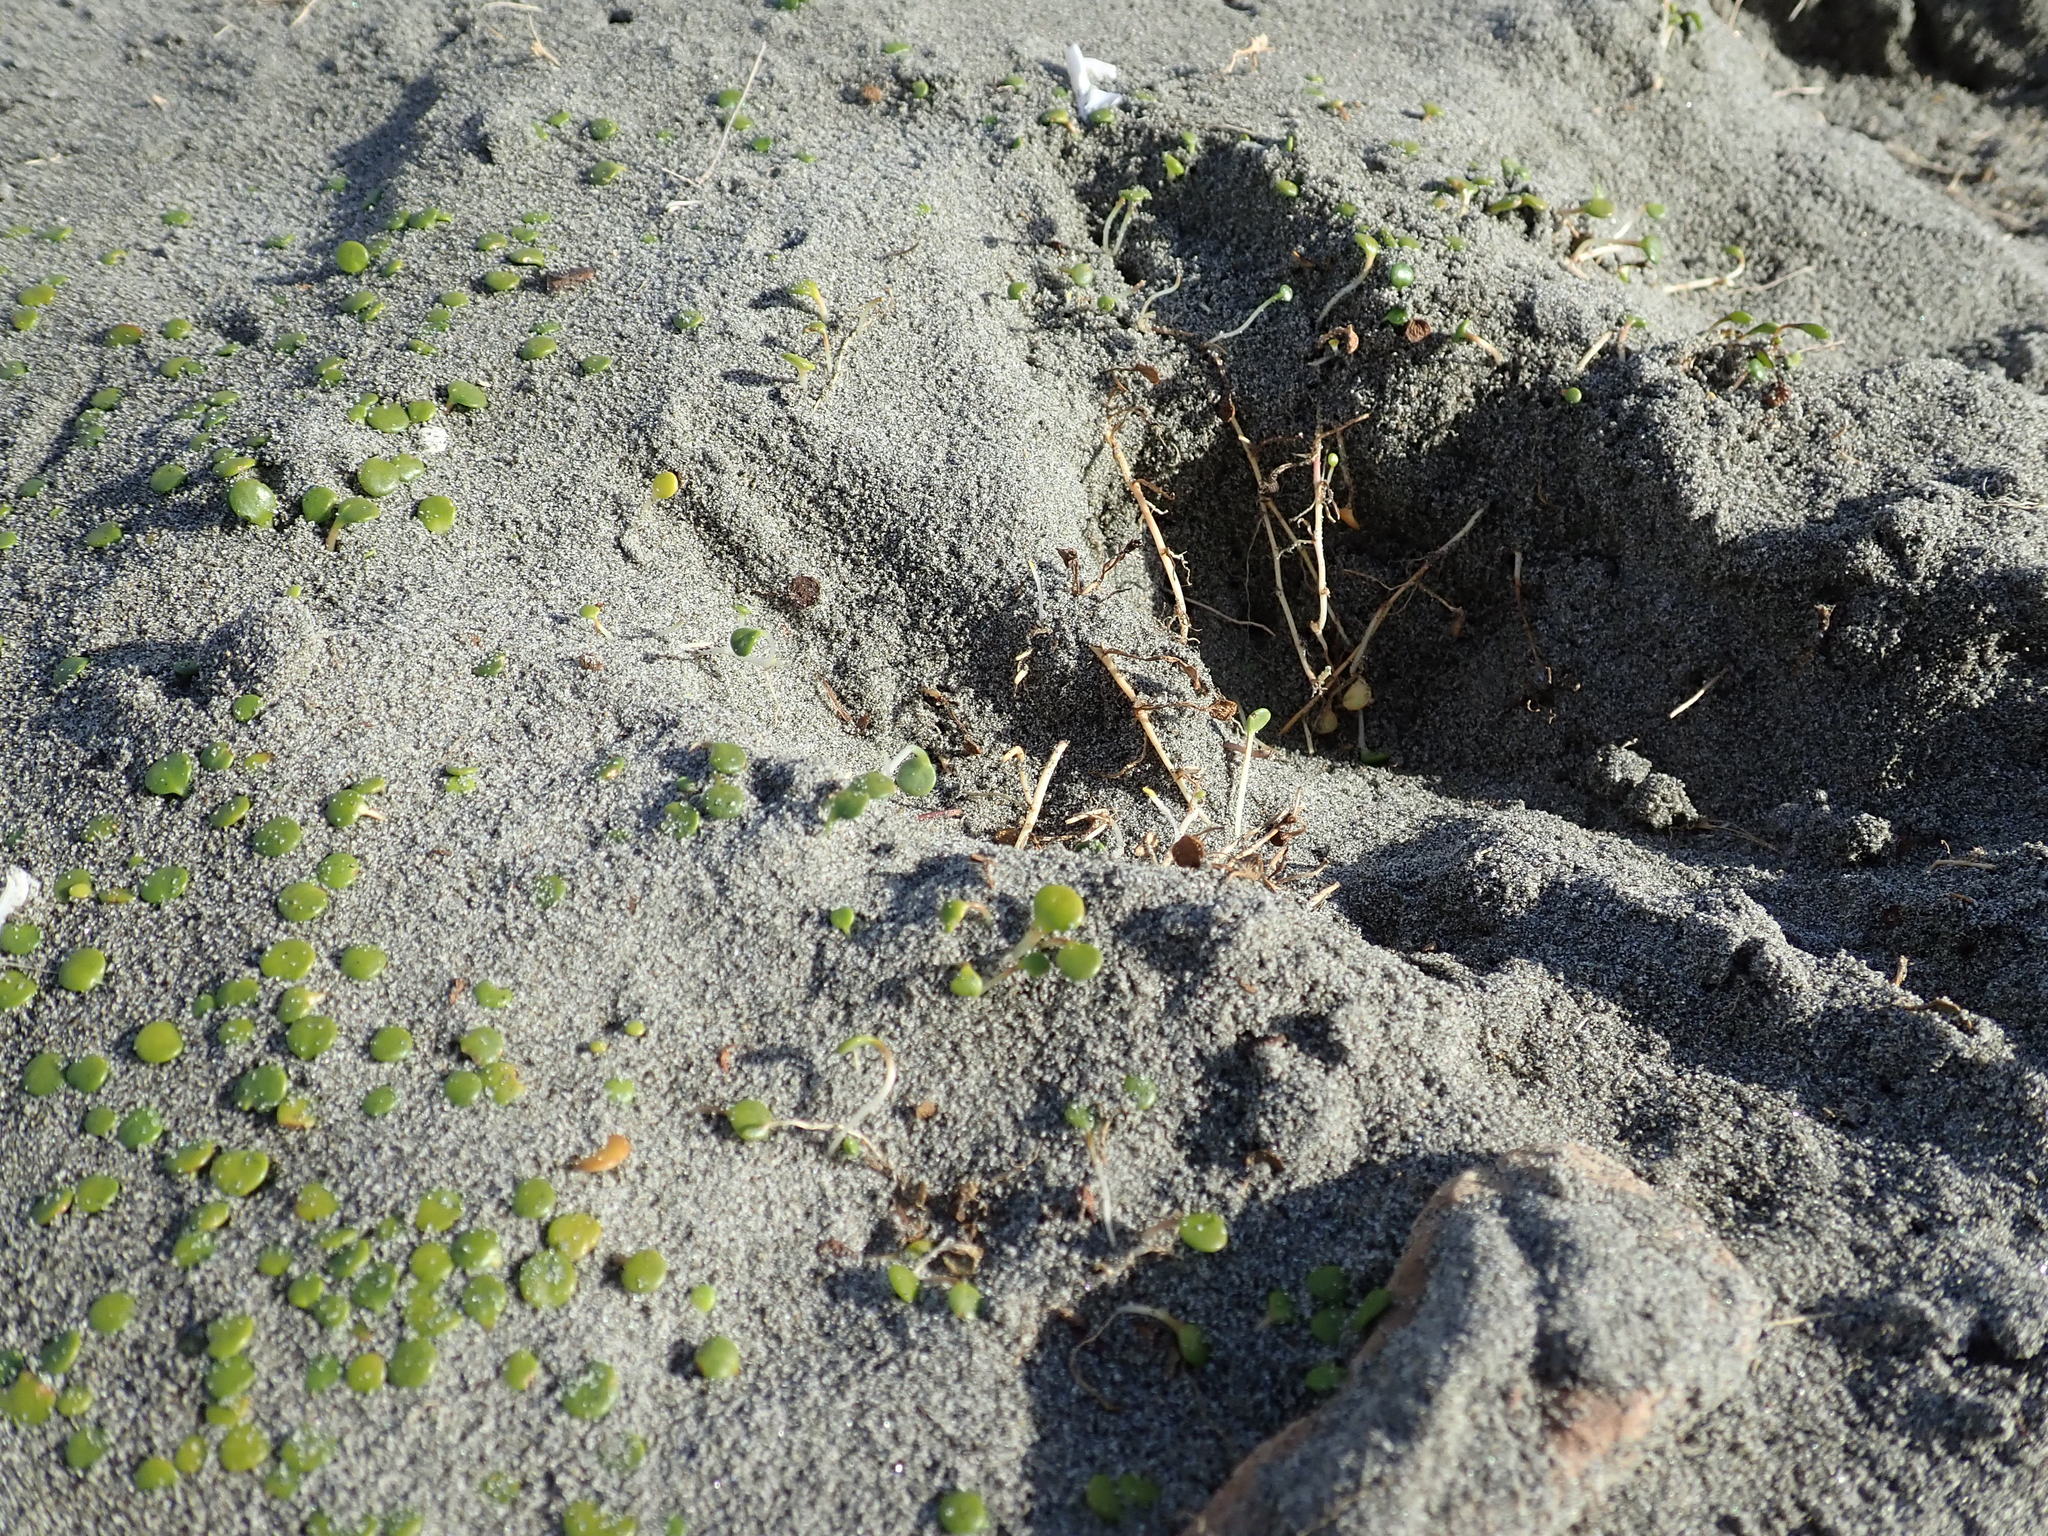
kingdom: Plantae
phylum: Tracheophyta
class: Magnoliopsida
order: Asterales
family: Goodeniaceae
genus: Goodenia
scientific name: Goodenia heenanii
